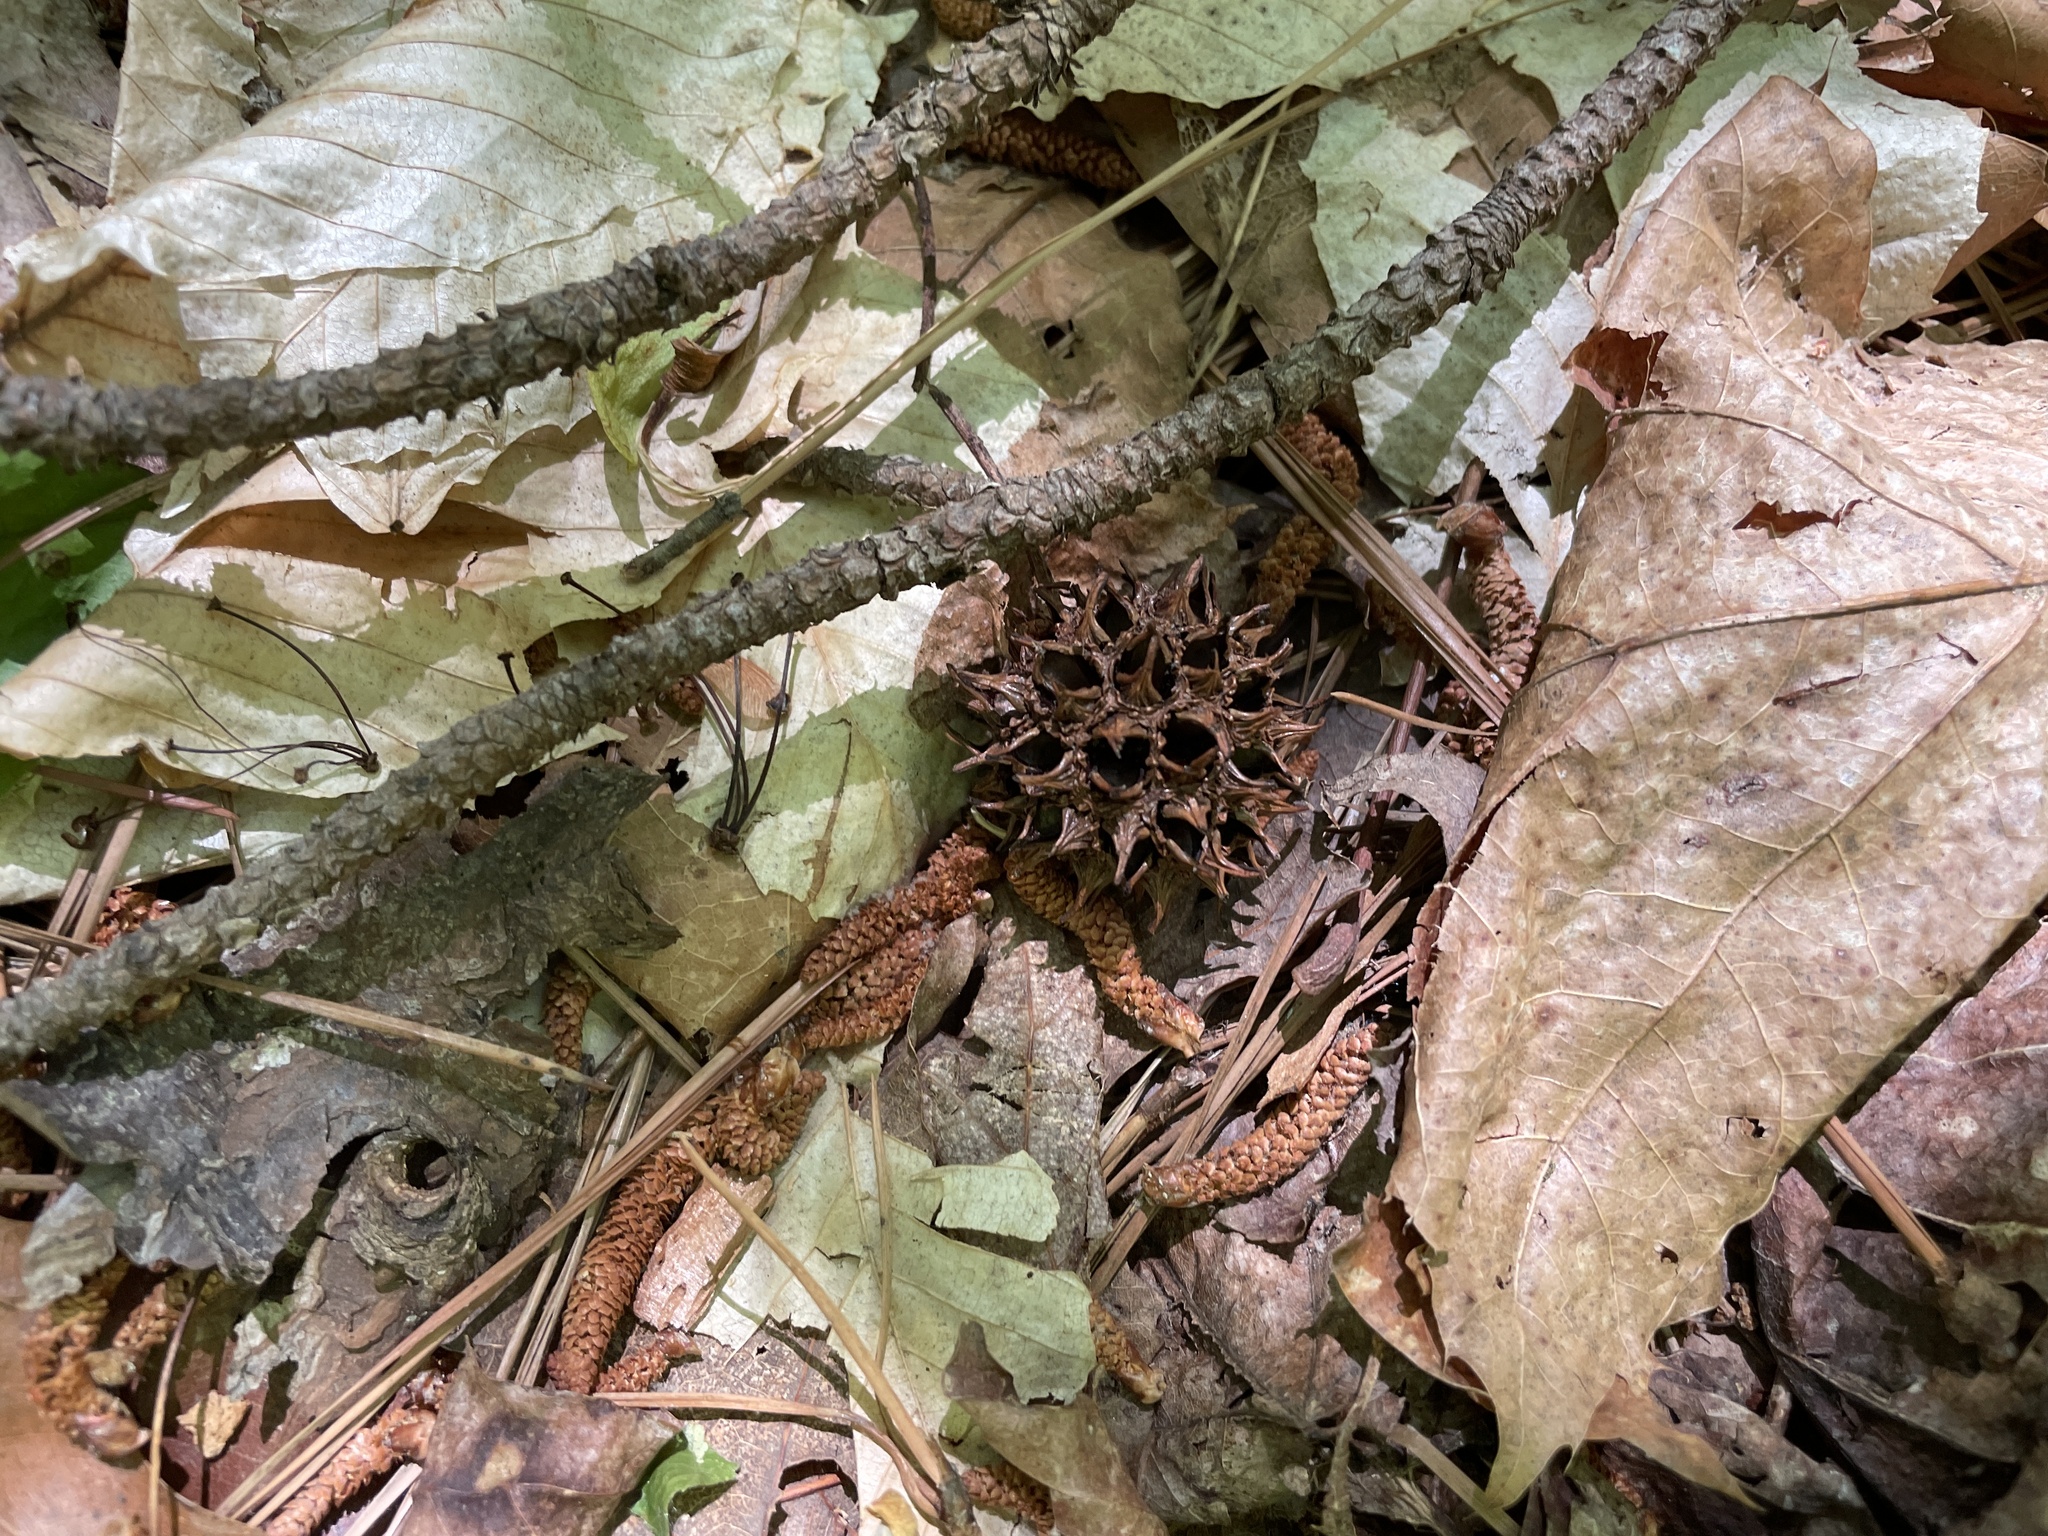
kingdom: Plantae
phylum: Tracheophyta
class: Magnoliopsida
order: Saxifragales
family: Altingiaceae
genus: Liquidambar
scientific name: Liquidambar styraciflua
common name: Sweet gum
